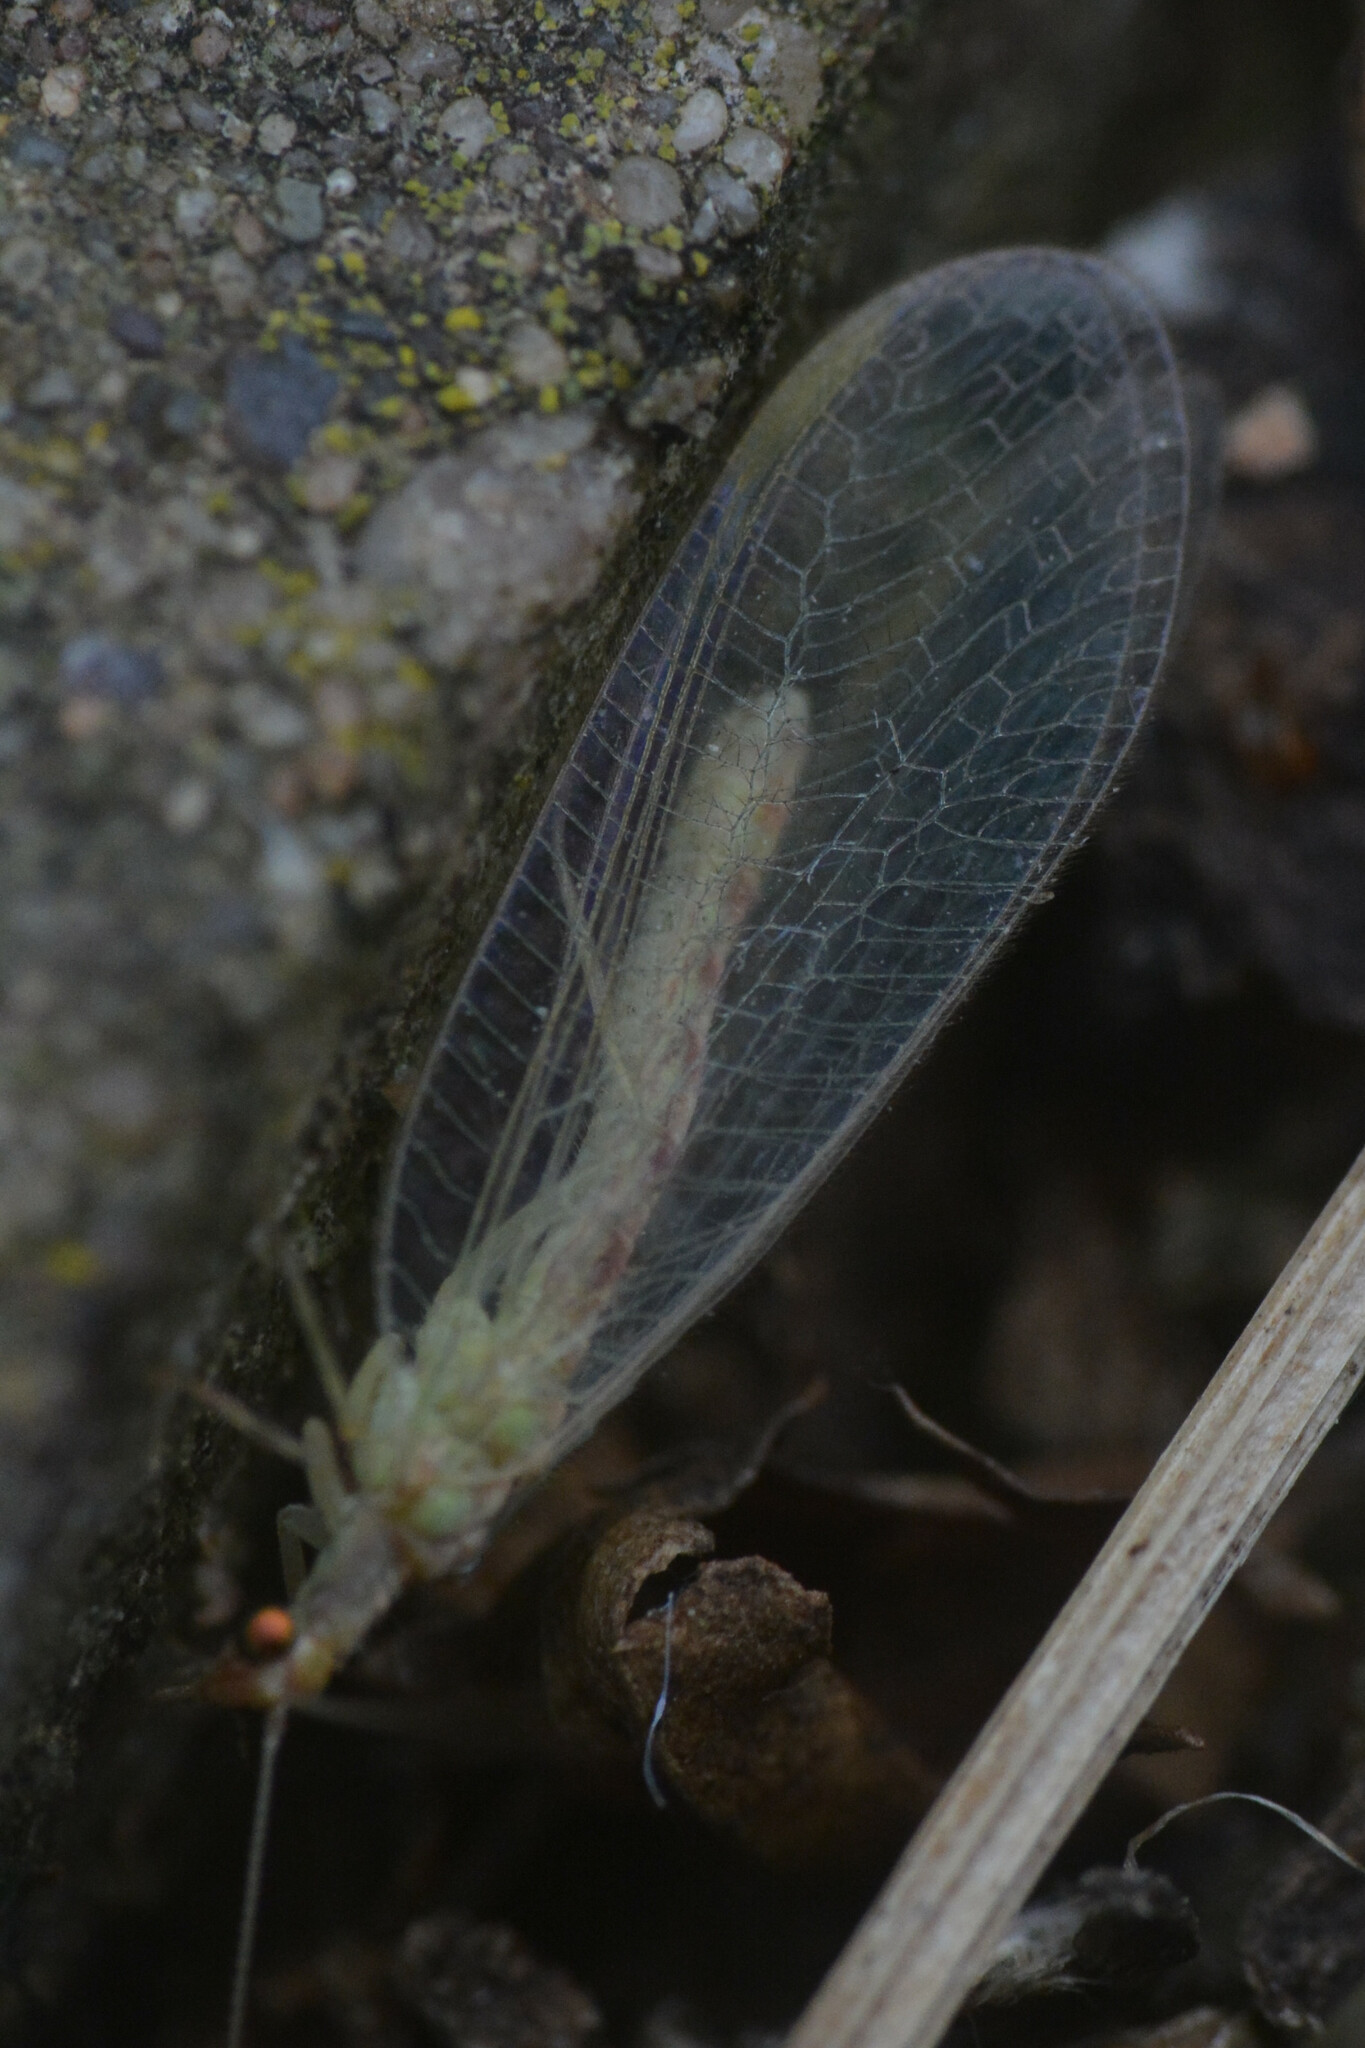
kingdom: Animalia
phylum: Arthropoda
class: Insecta
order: Neuroptera
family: Chrysopidae
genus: Chrysoperla
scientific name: Chrysoperla carnea
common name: Common green lacewing
